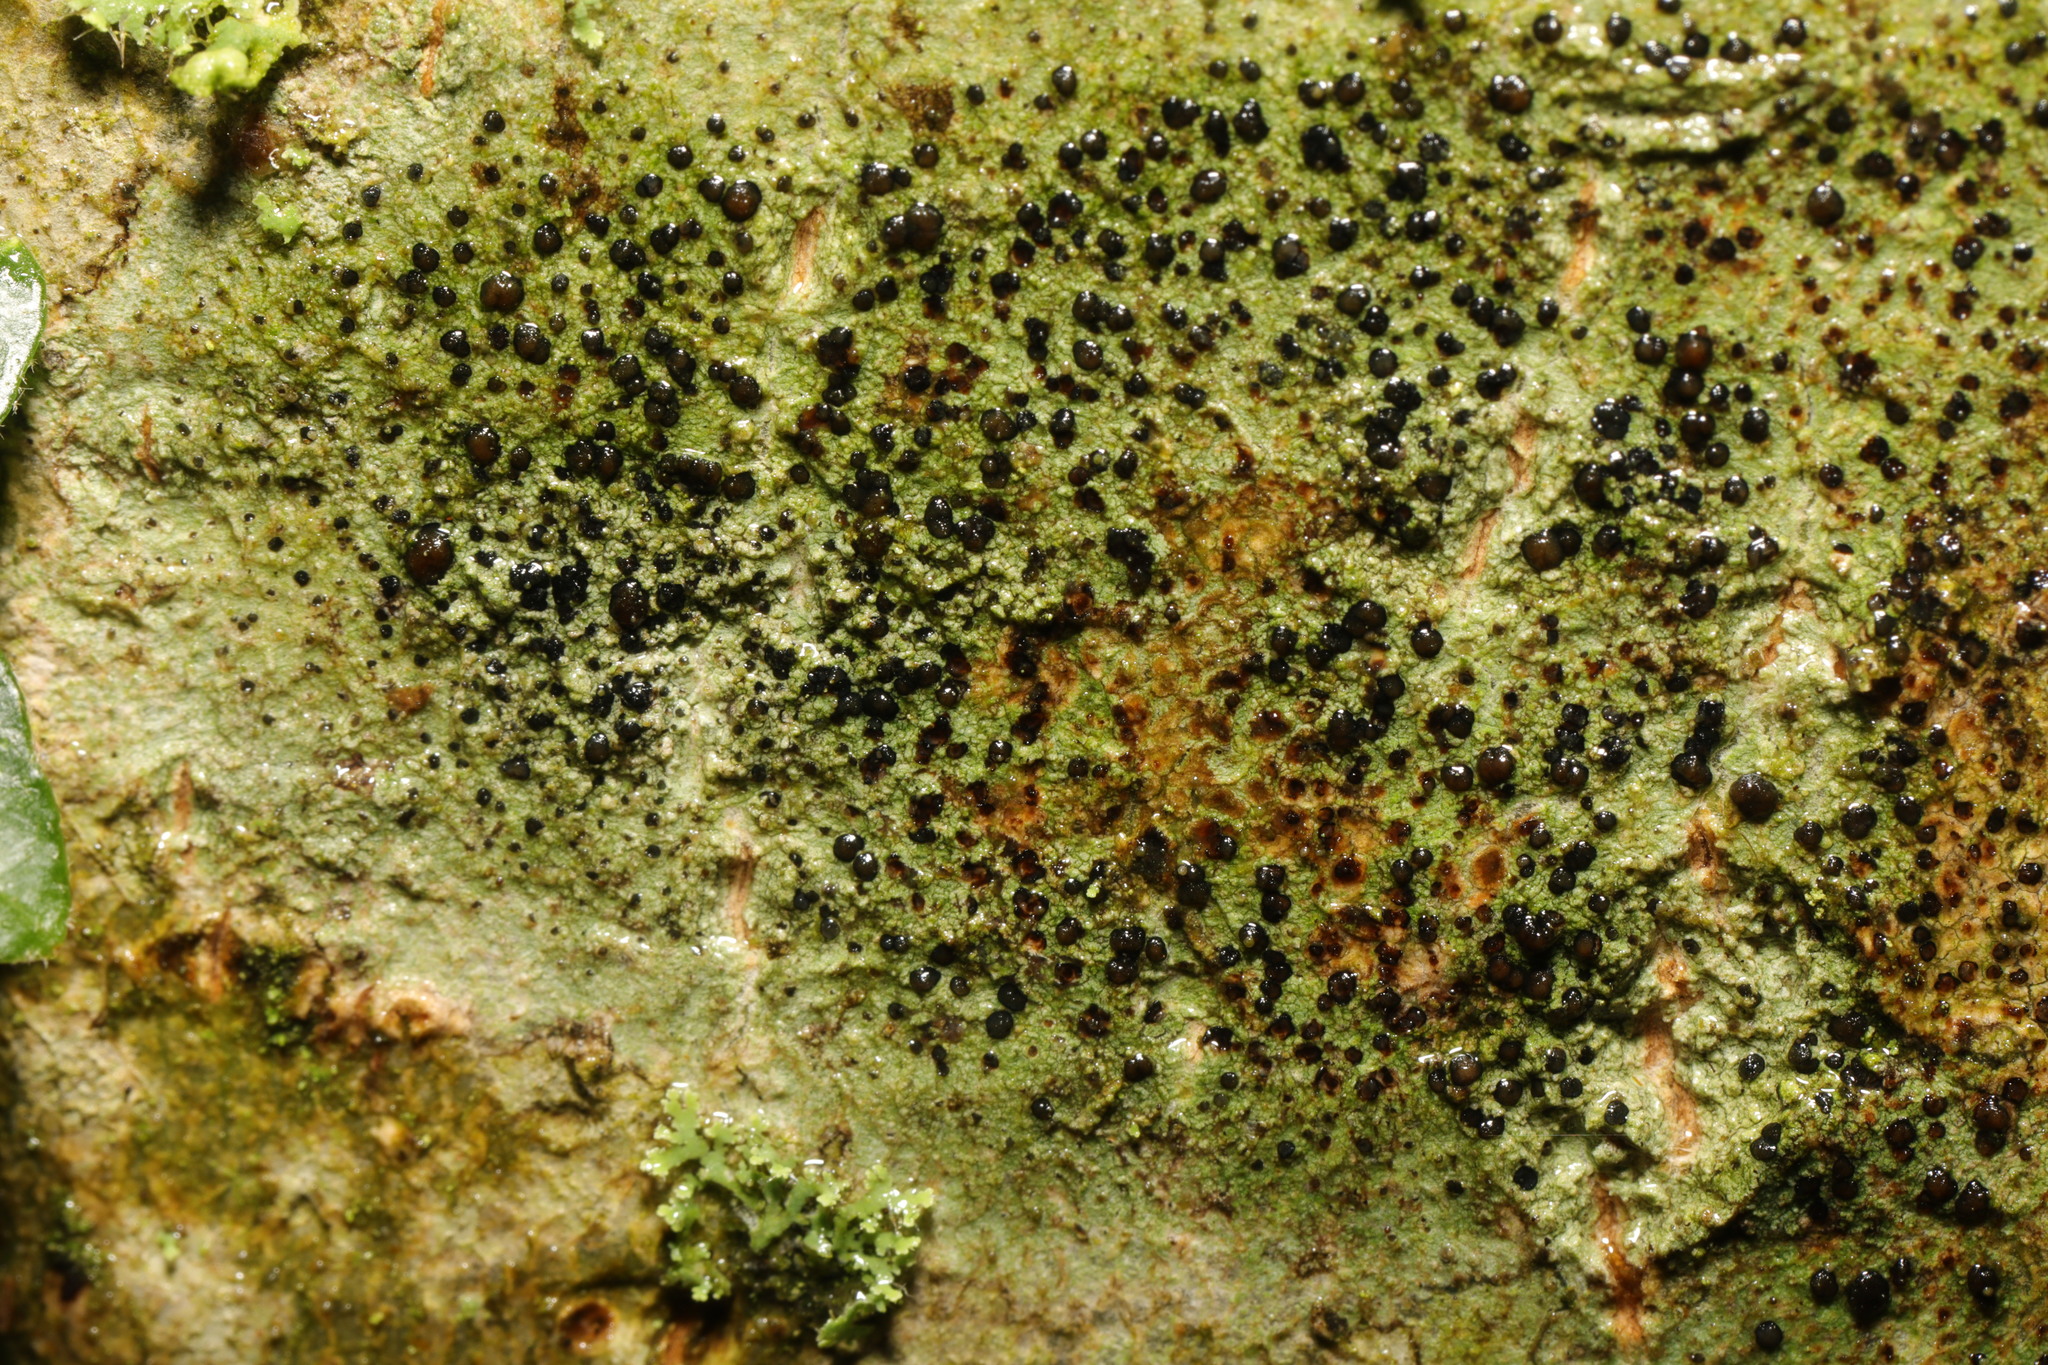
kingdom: Fungi
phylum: Ascomycota
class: Lecanoromycetes
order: Lecanorales
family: Lecanoraceae
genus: Lecidella
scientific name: Lecidella elaeochroma
